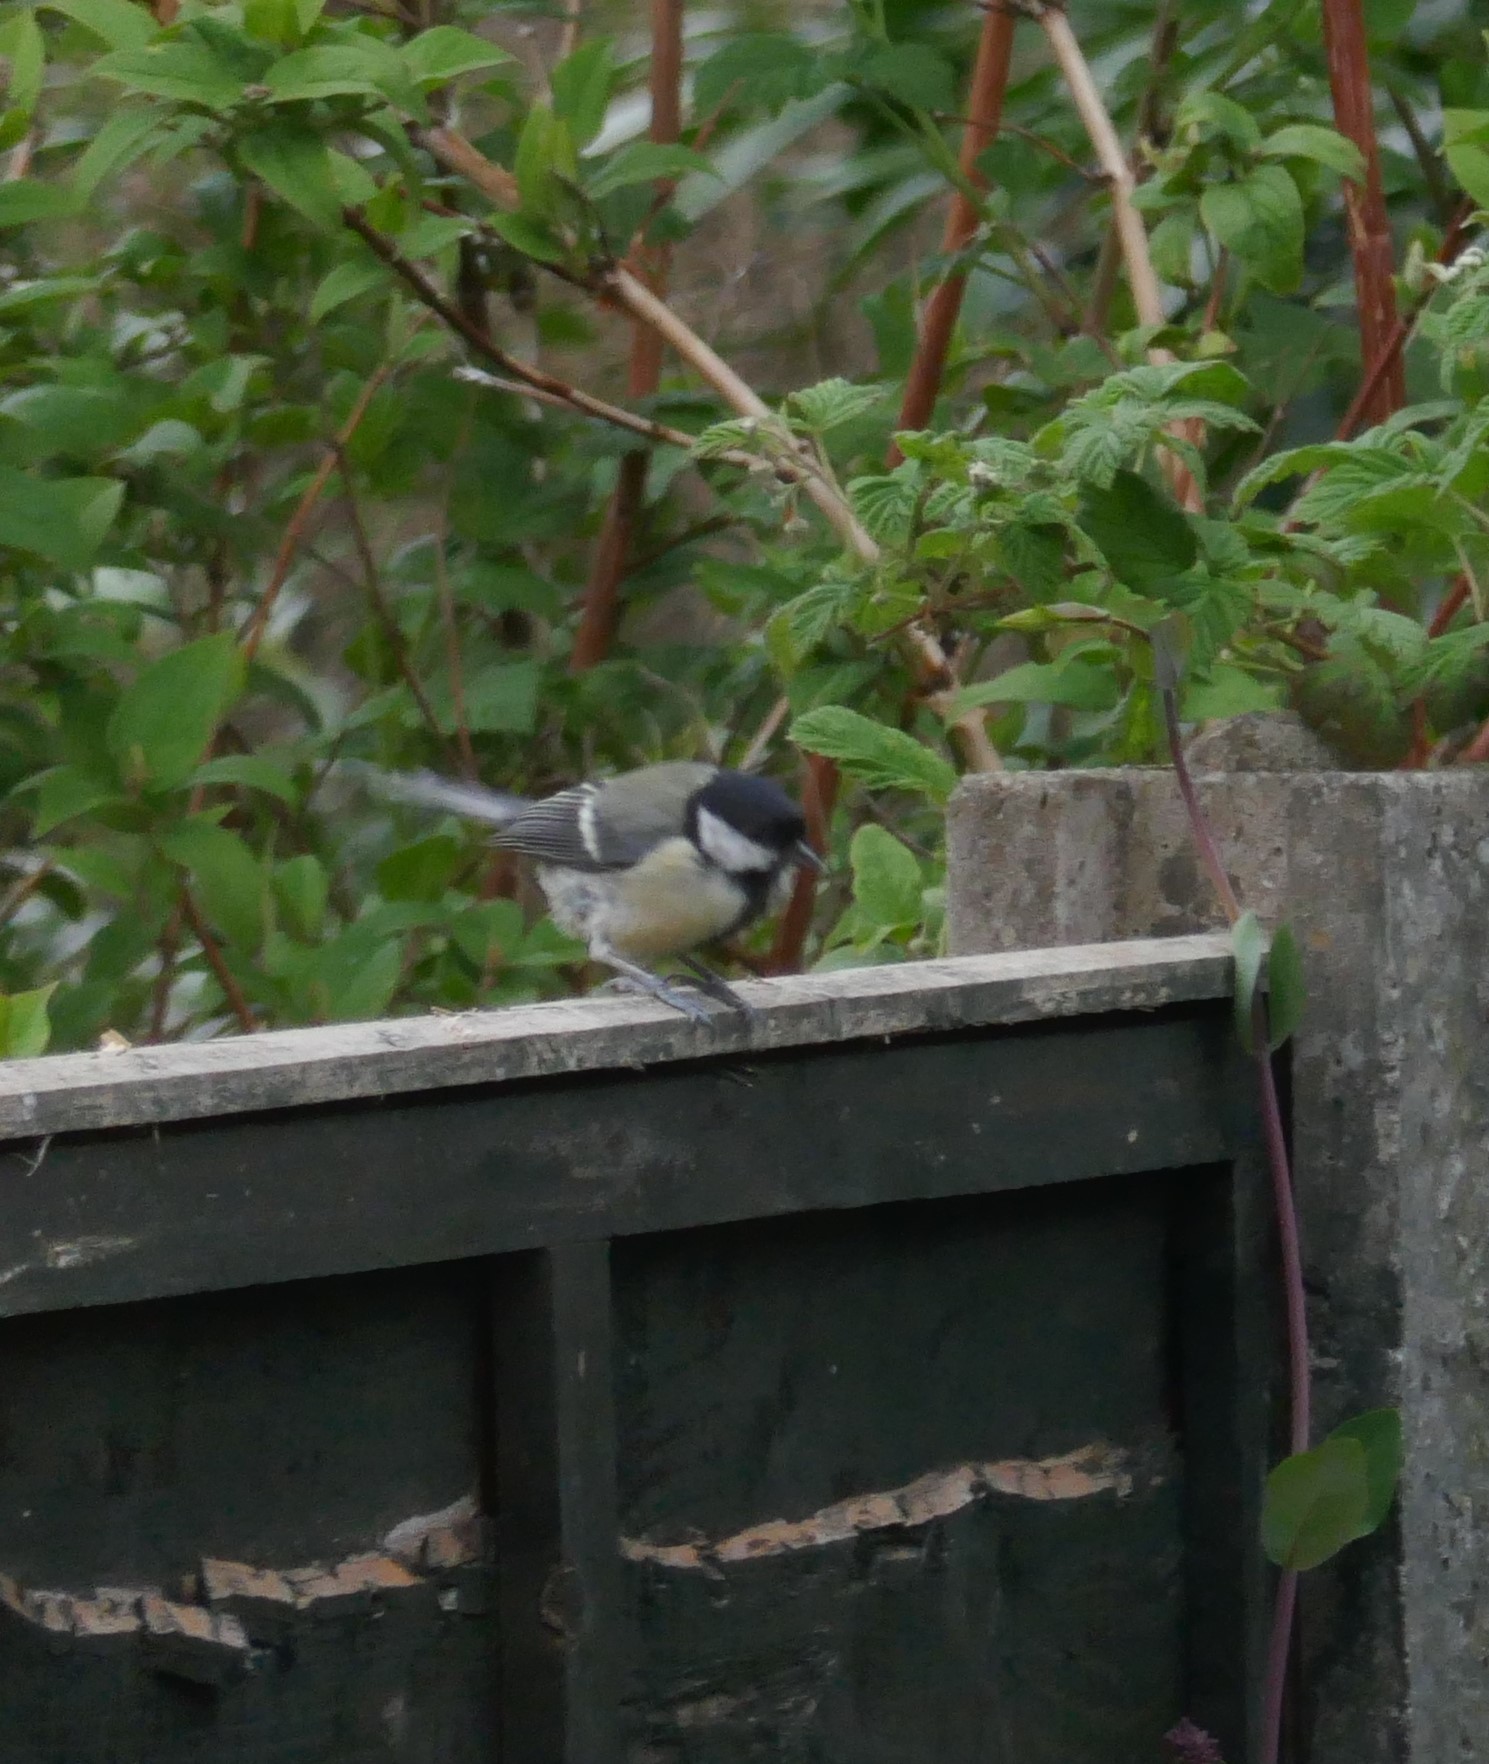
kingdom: Animalia
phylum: Chordata
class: Aves
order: Passeriformes
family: Paridae
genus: Parus
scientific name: Parus major
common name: Great tit
